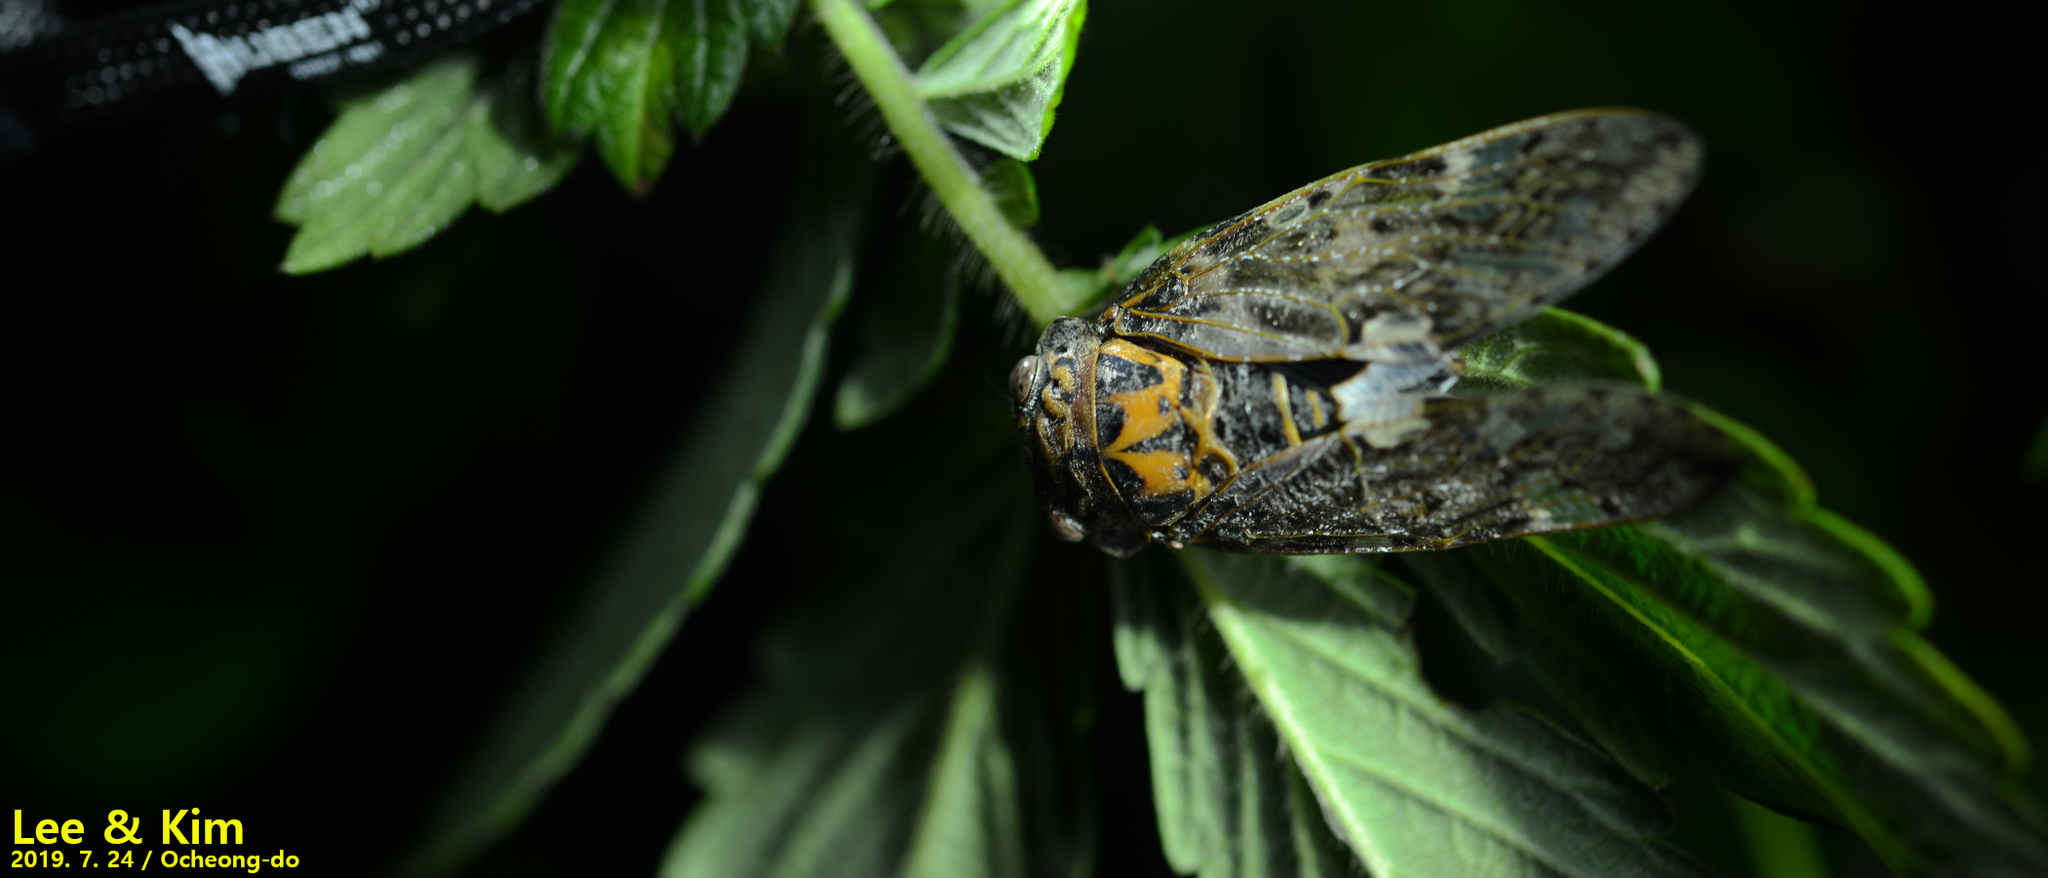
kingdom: Animalia
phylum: Arthropoda
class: Insecta
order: Hemiptera
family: Cicadidae
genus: Platypleura
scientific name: Platypleura kaempferi
